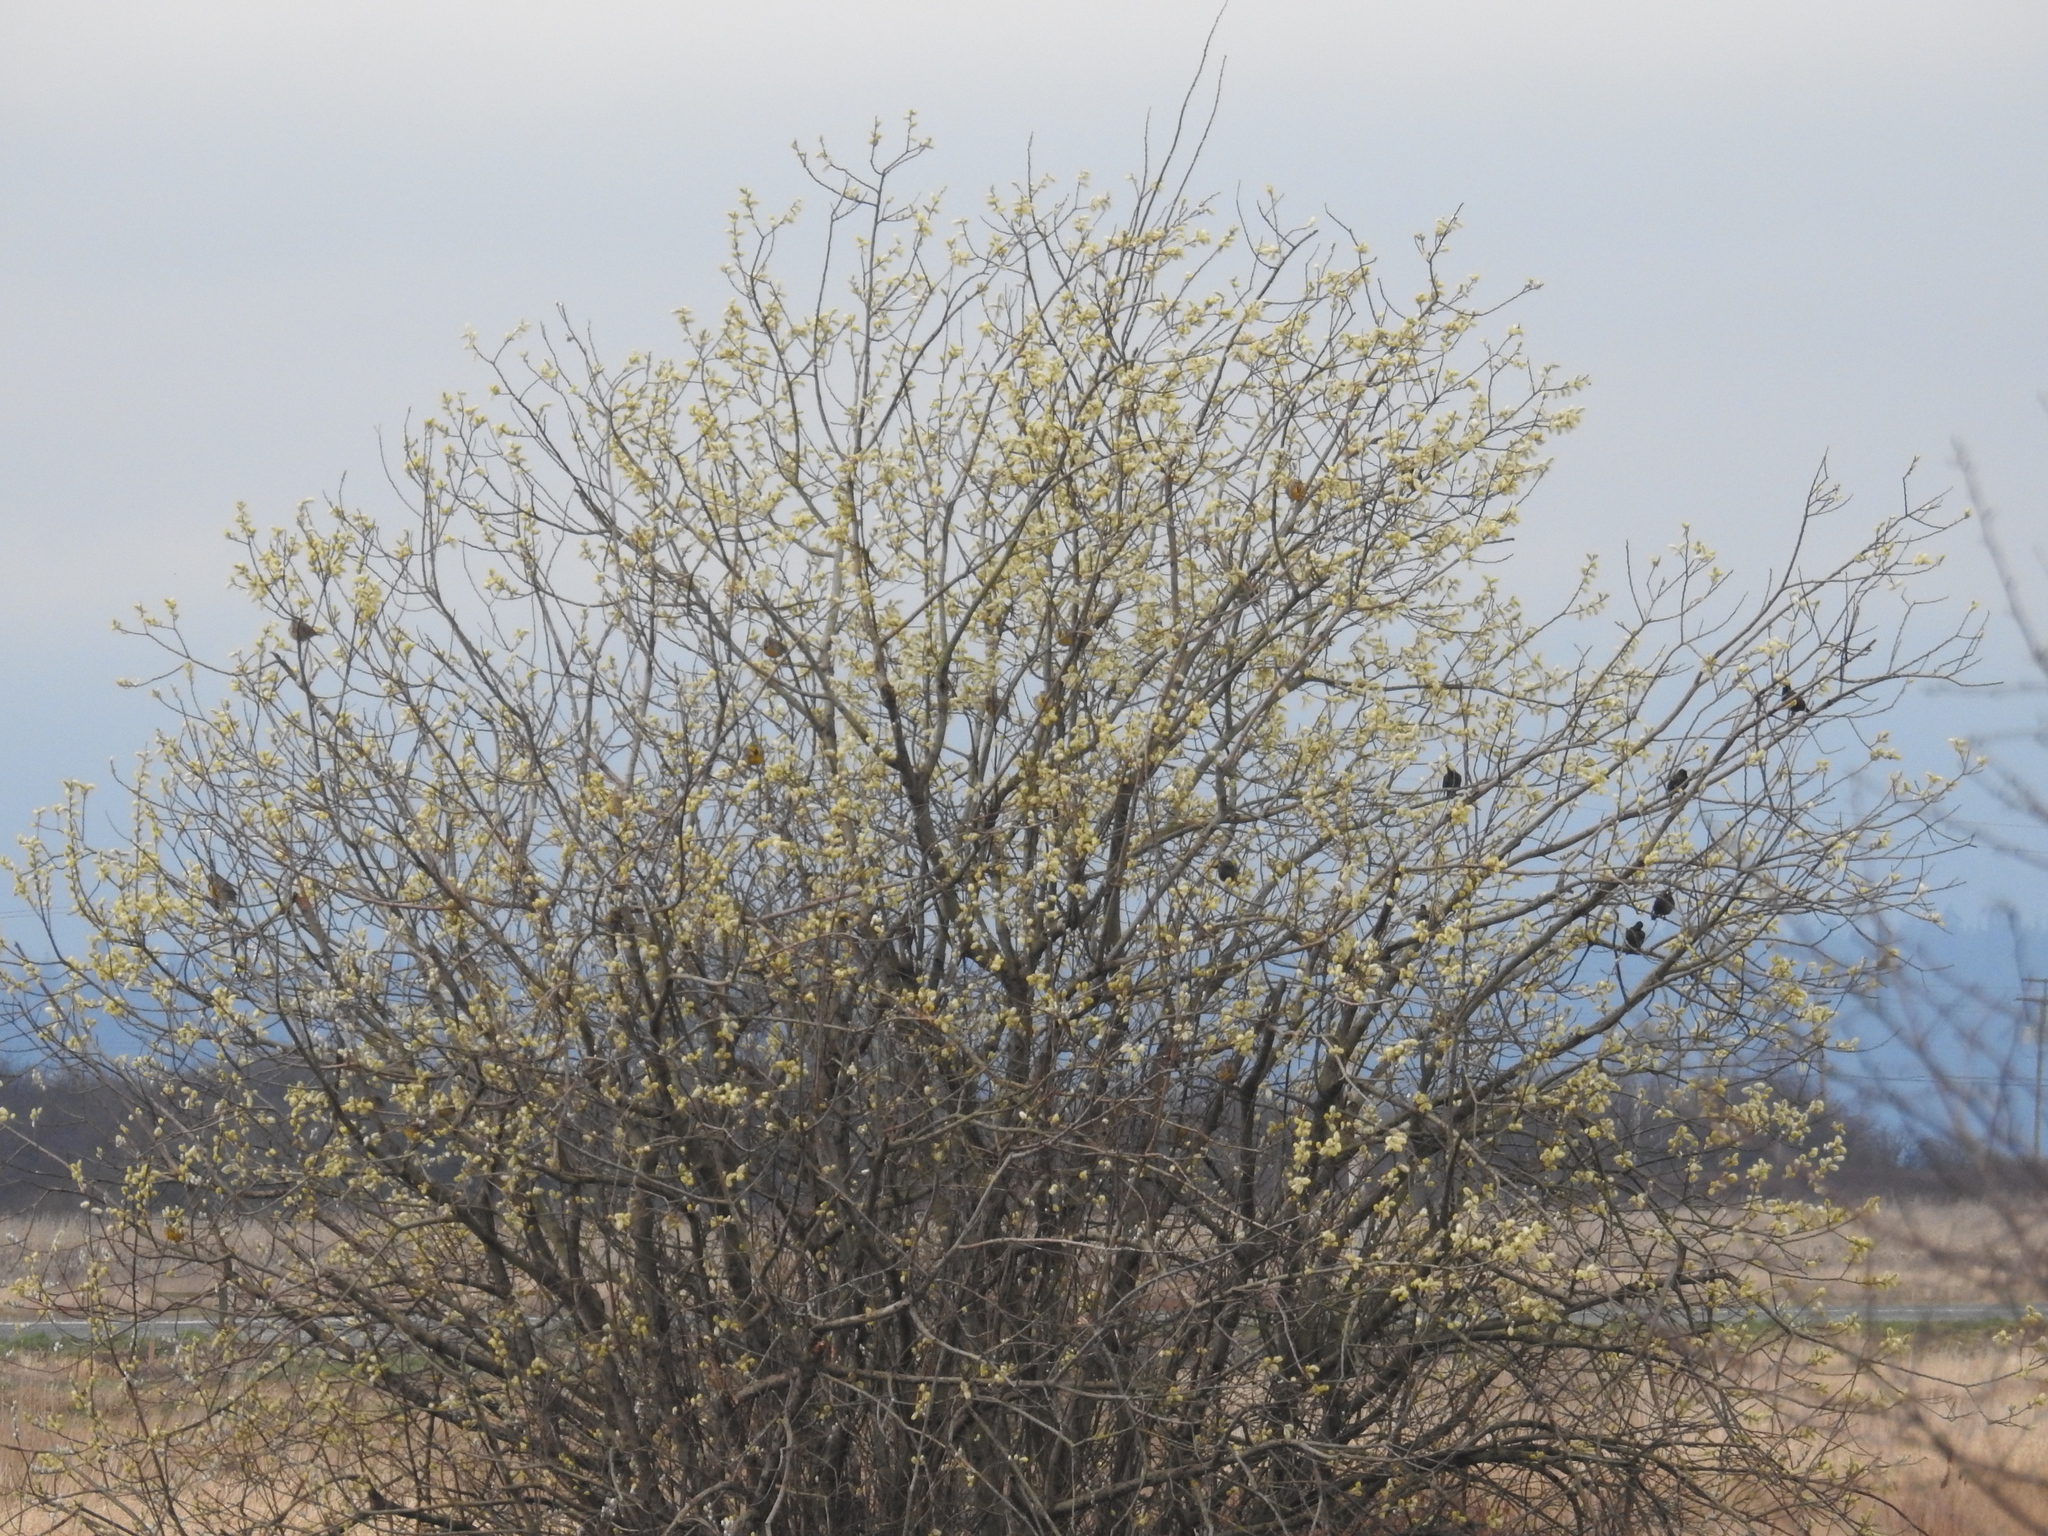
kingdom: Animalia
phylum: Chordata
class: Aves
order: Passeriformes
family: Icteridae
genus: Sturnella
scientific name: Sturnella neglecta
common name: Western meadowlark
